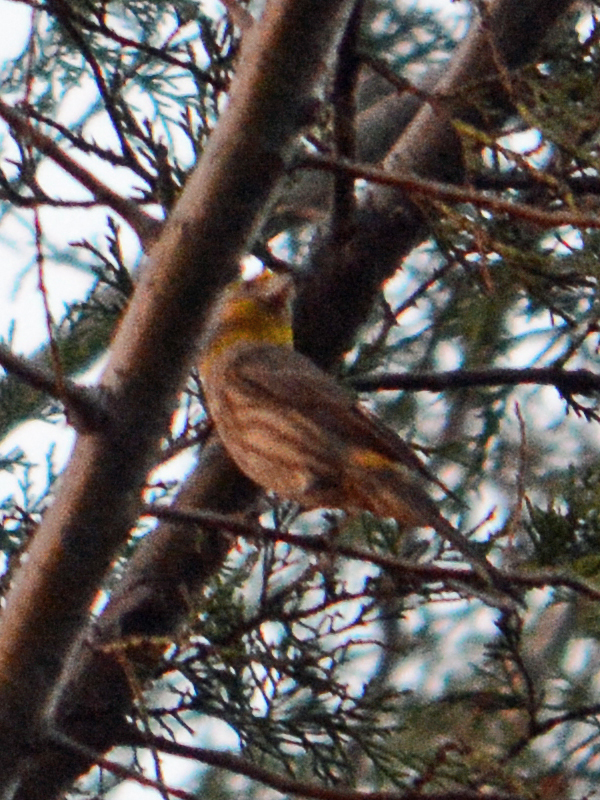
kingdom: Animalia
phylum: Chordata
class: Aves
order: Passeriformes
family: Fringillidae
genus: Haemorhous
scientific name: Haemorhous mexicanus
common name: House finch
